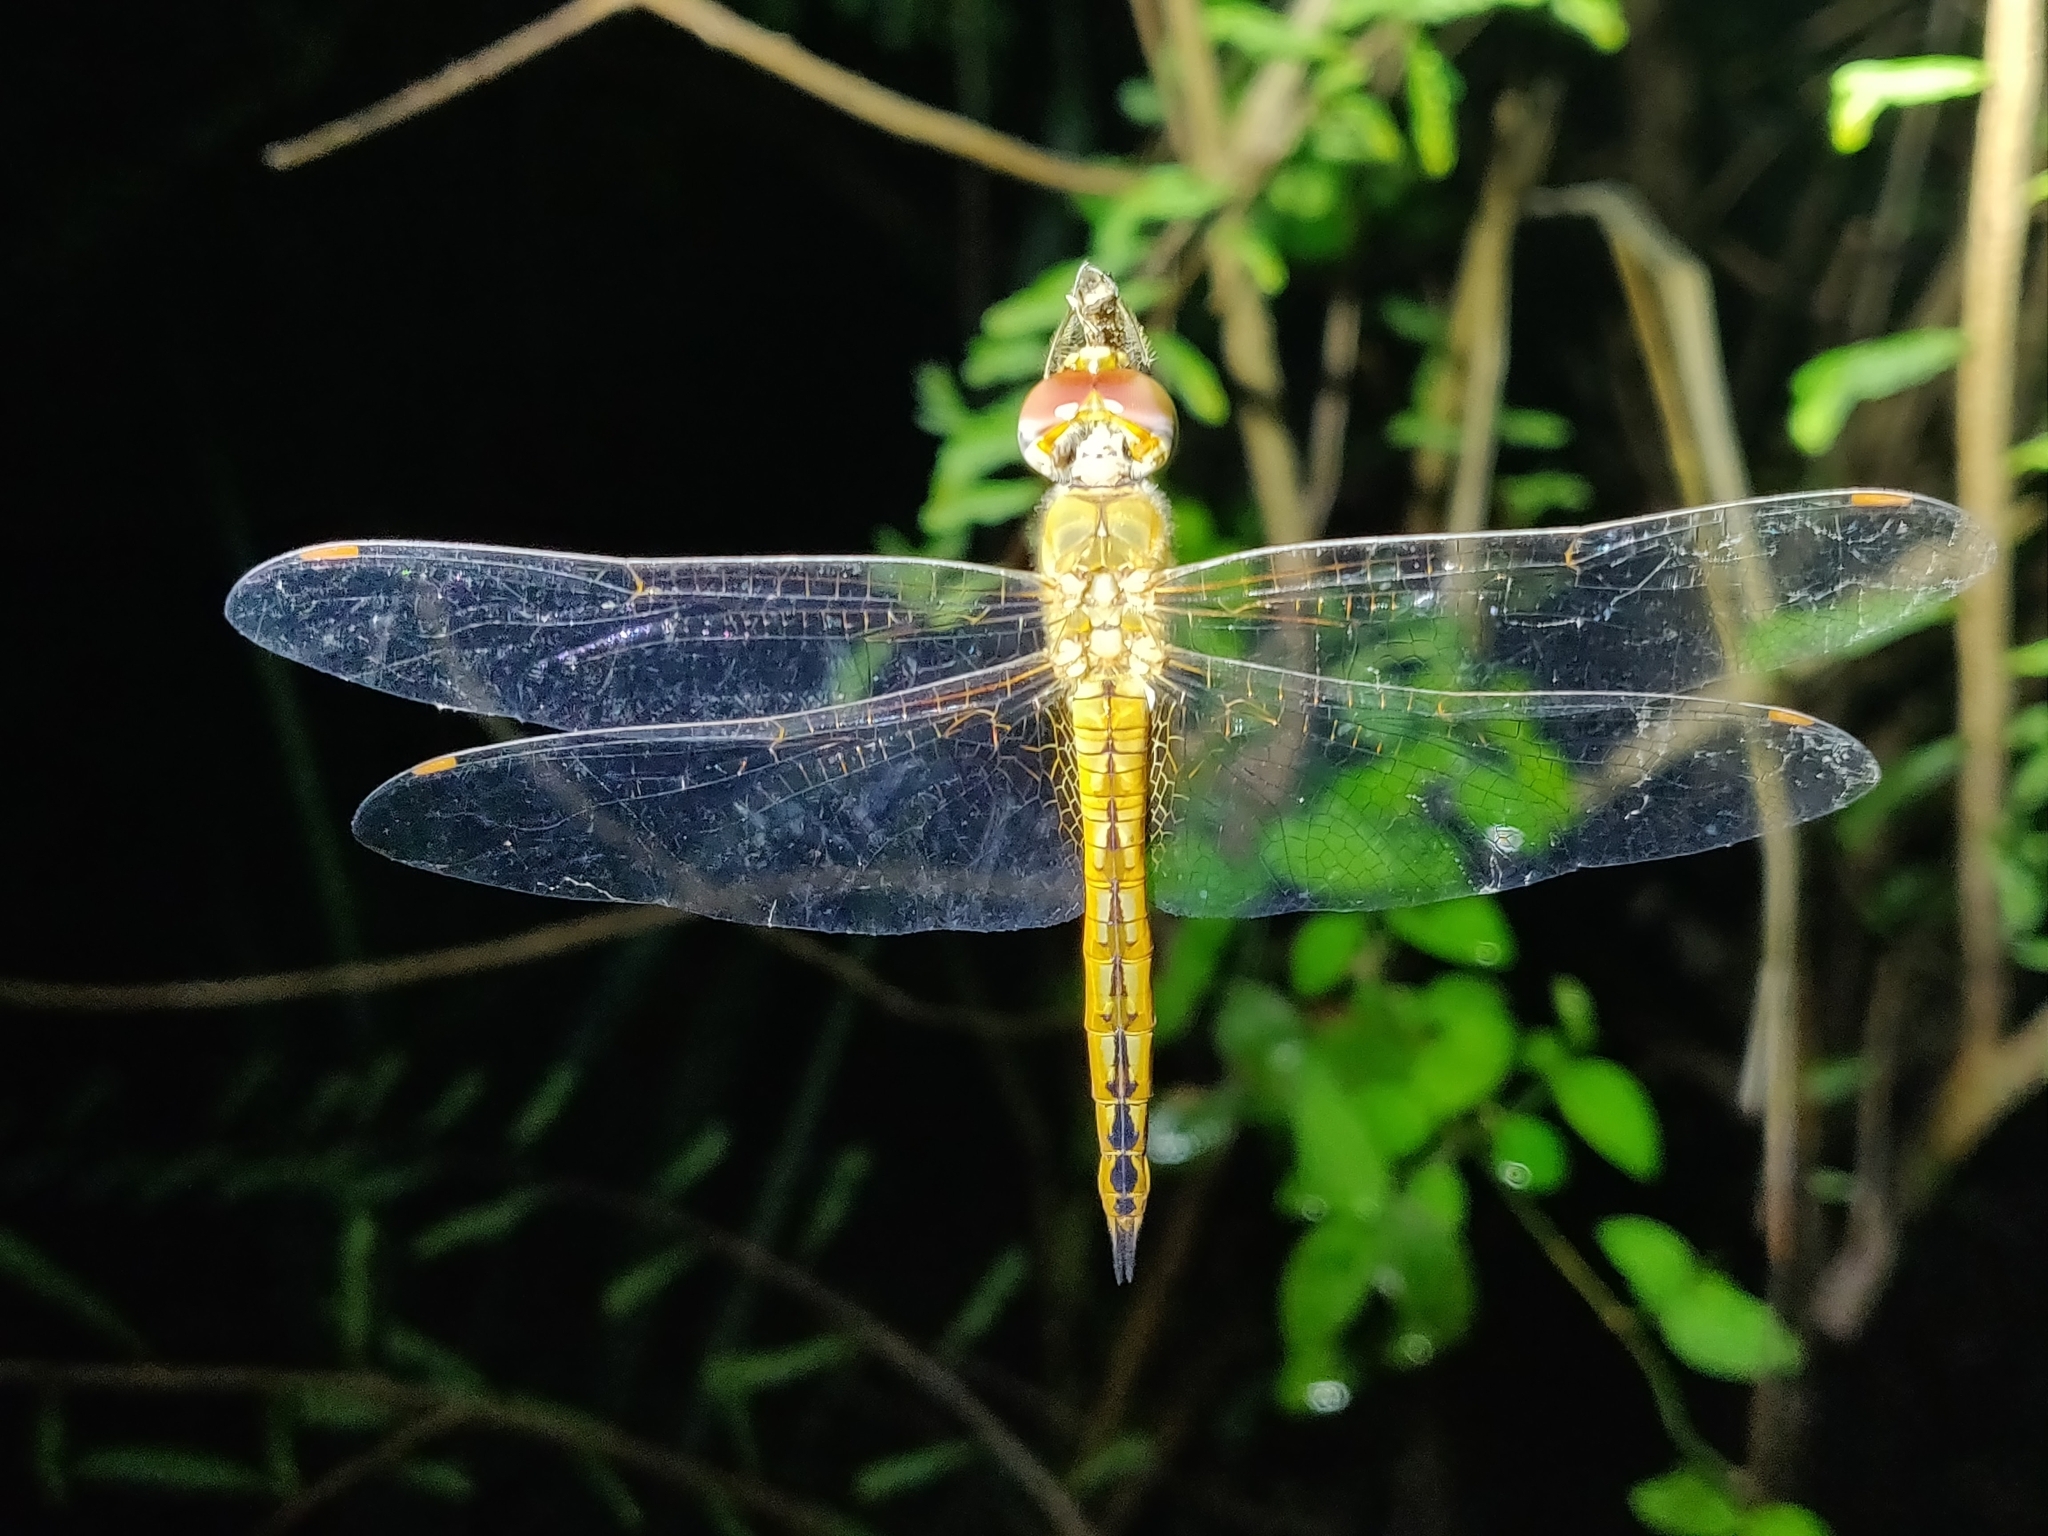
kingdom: Animalia
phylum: Arthropoda
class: Insecta
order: Odonata
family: Libellulidae
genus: Pantala
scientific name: Pantala flavescens
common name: Wandering glider
